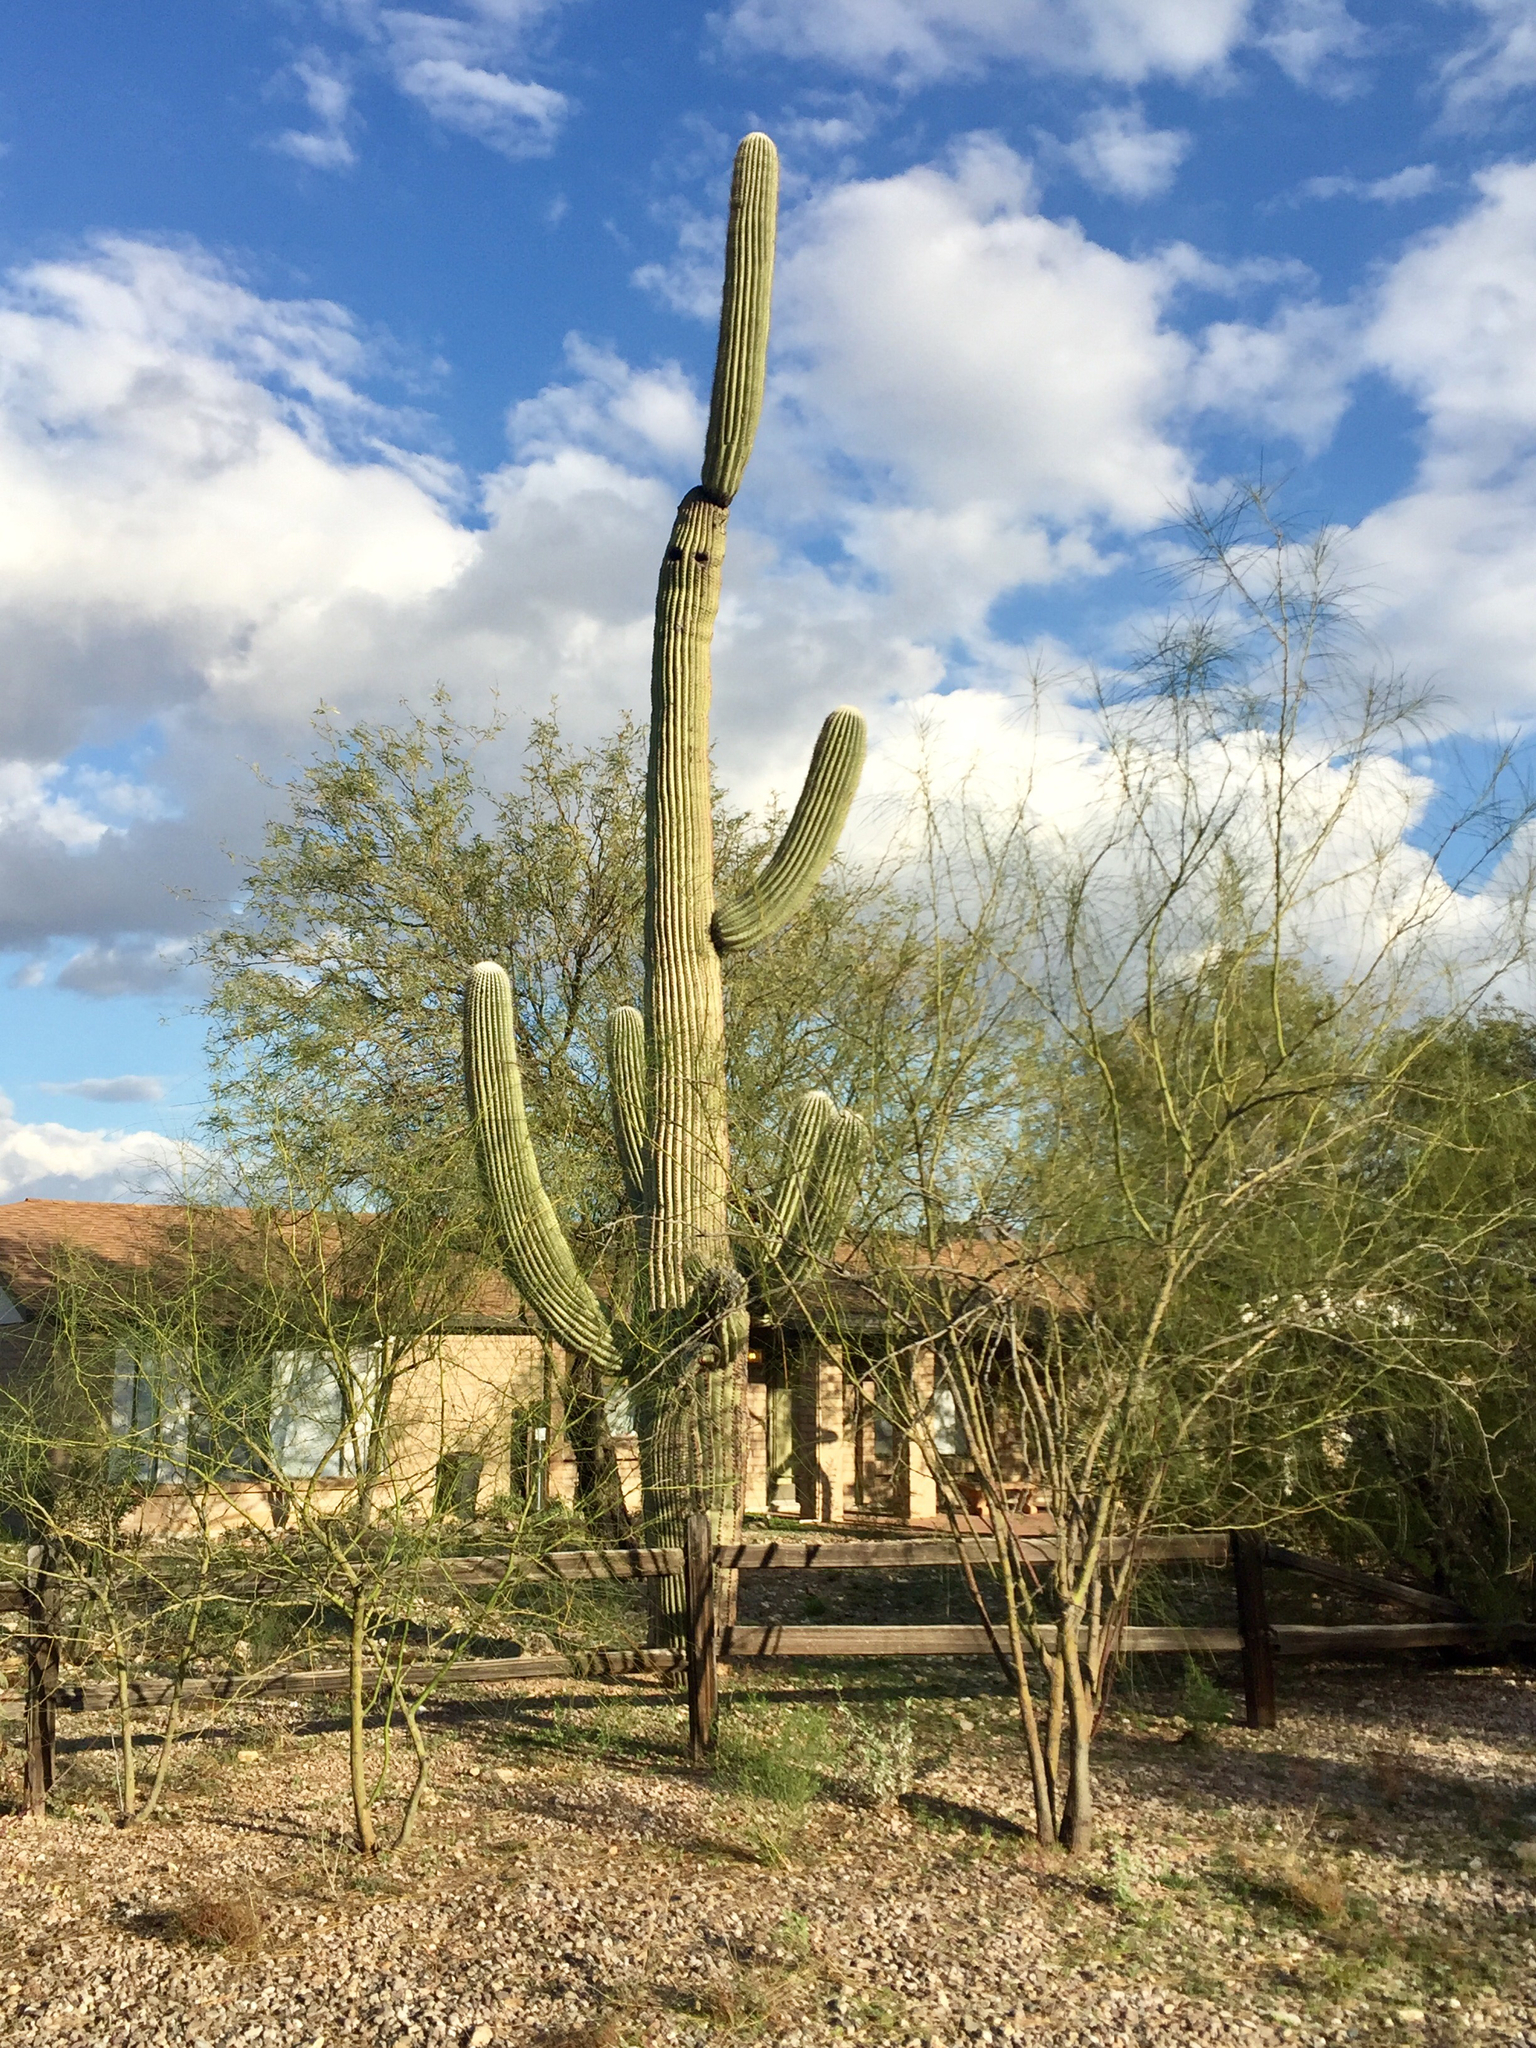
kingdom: Plantae
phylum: Tracheophyta
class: Magnoliopsida
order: Caryophyllales
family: Cactaceae
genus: Carnegiea
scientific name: Carnegiea gigantea
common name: Saguaro
